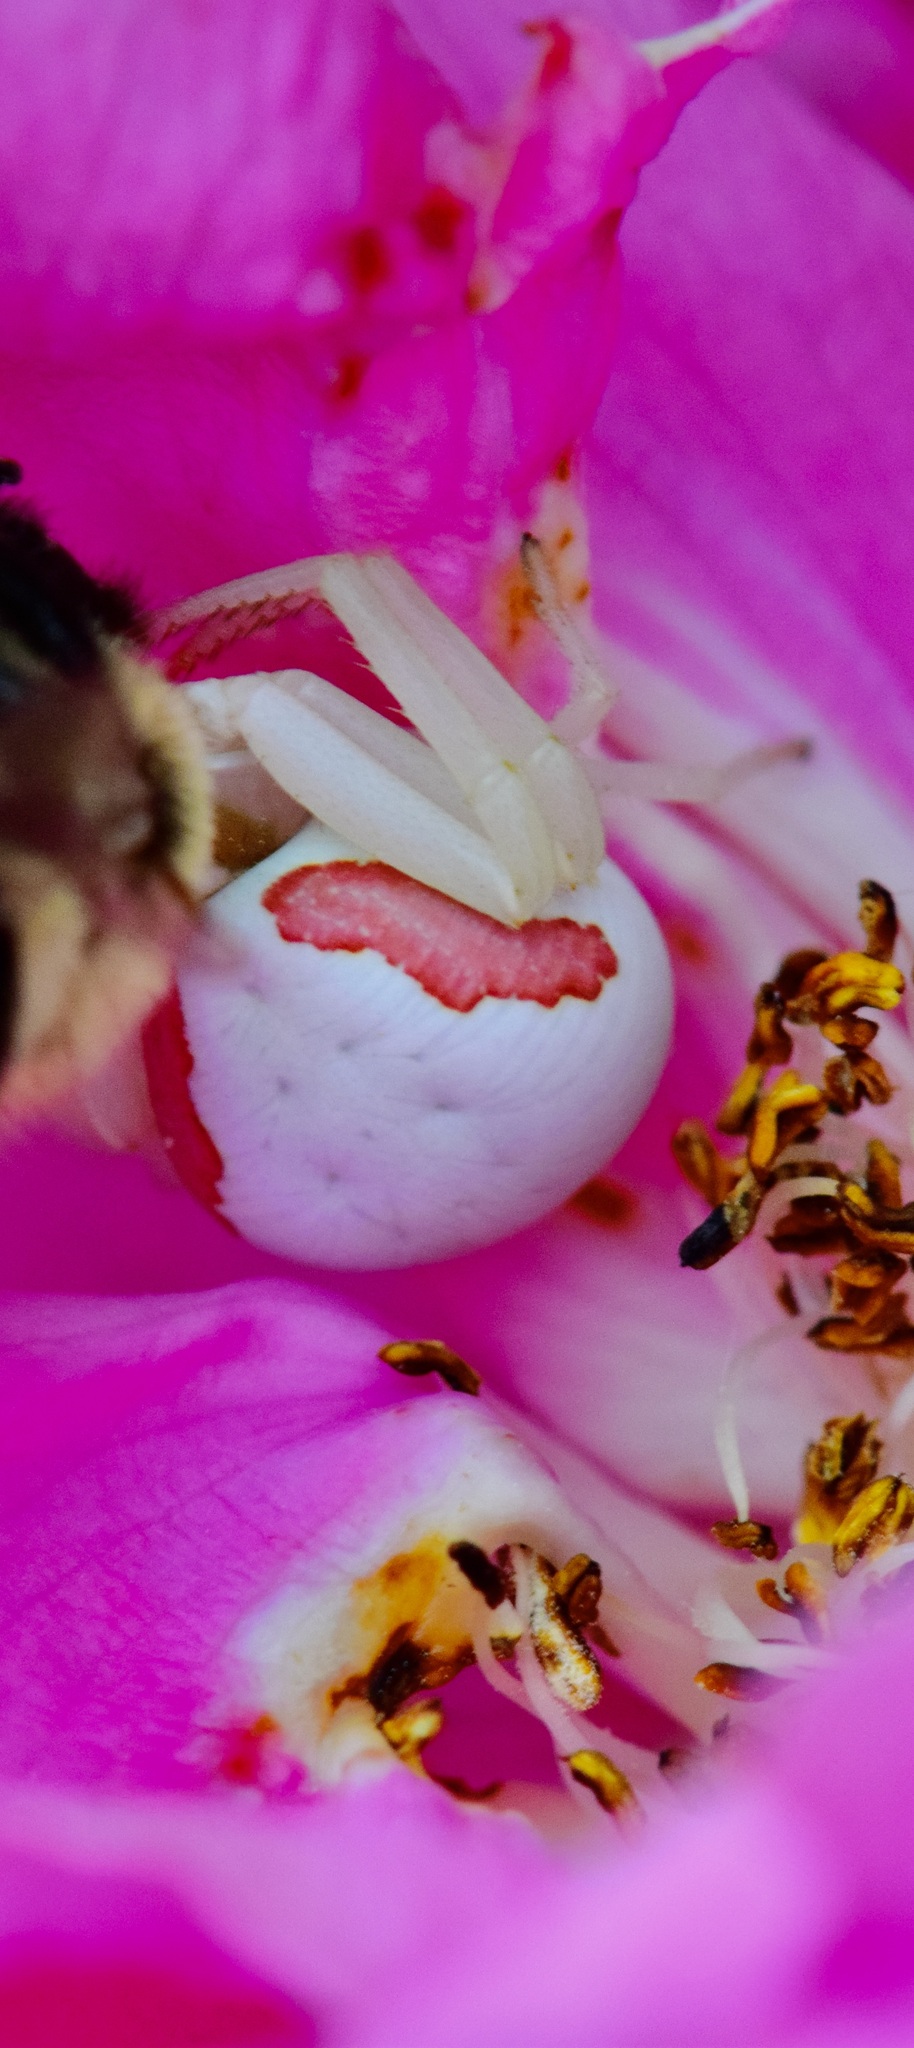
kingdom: Animalia
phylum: Arthropoda
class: Arachnida
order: Araneae
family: Thomisidae
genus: Misumena
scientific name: Misumena vatia
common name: Goldenrod crab spider
